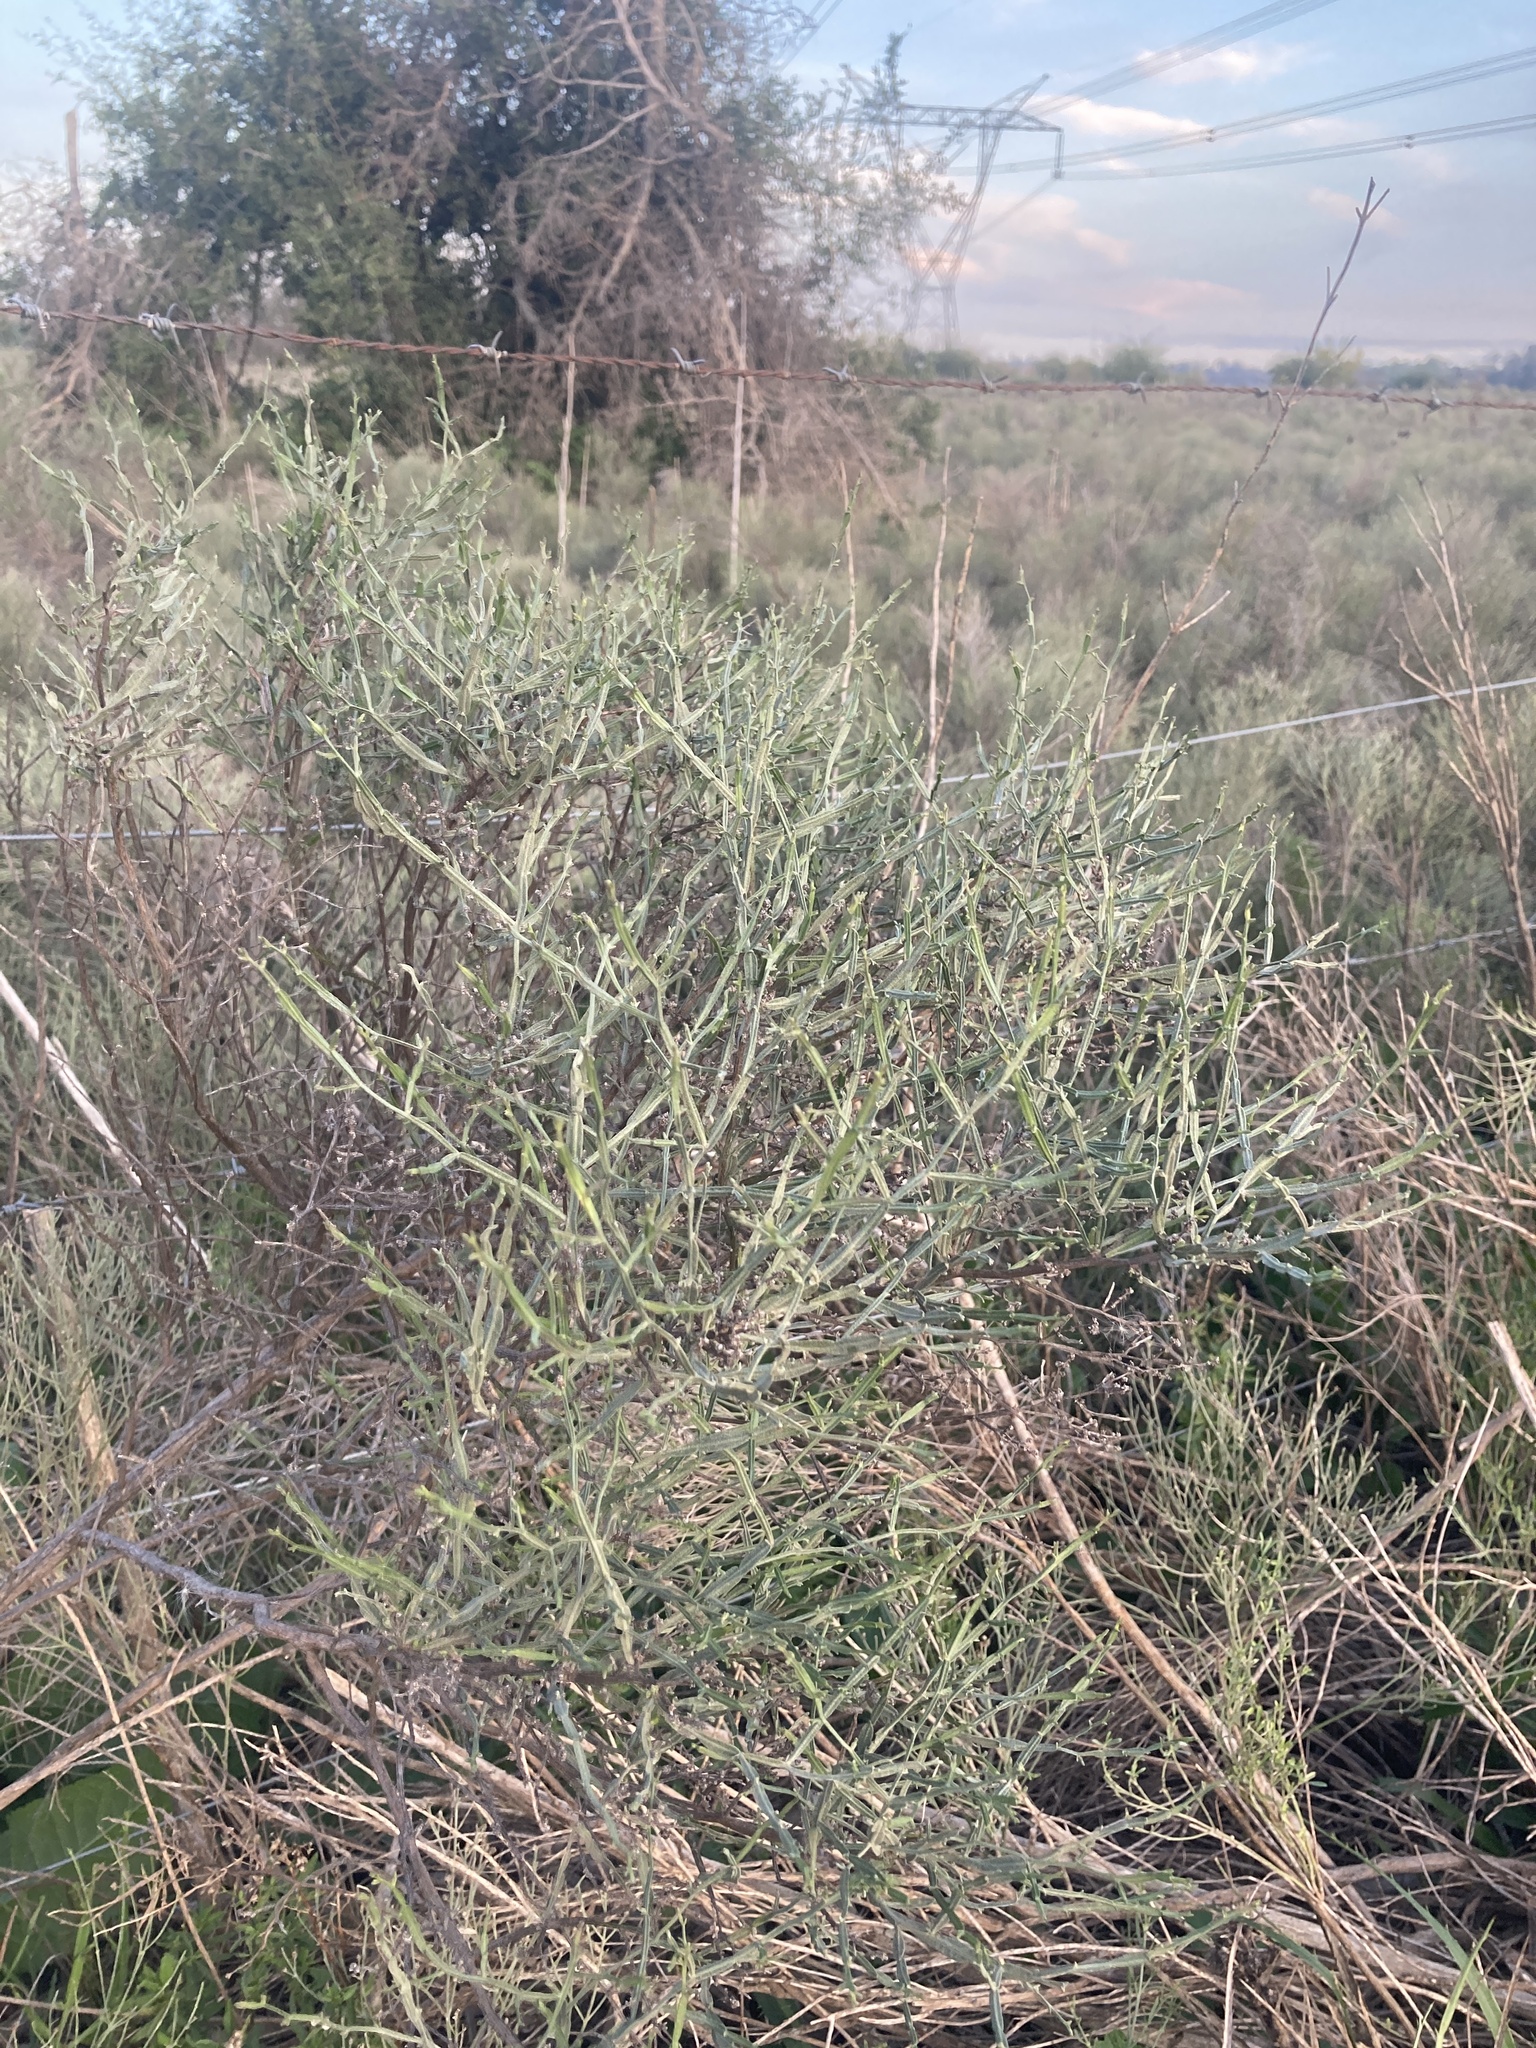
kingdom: Plantae
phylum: Tracheophyta
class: Magnoliopsida
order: Asterales
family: Asteraceae
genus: Baccharis
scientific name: Baccharis articulata
